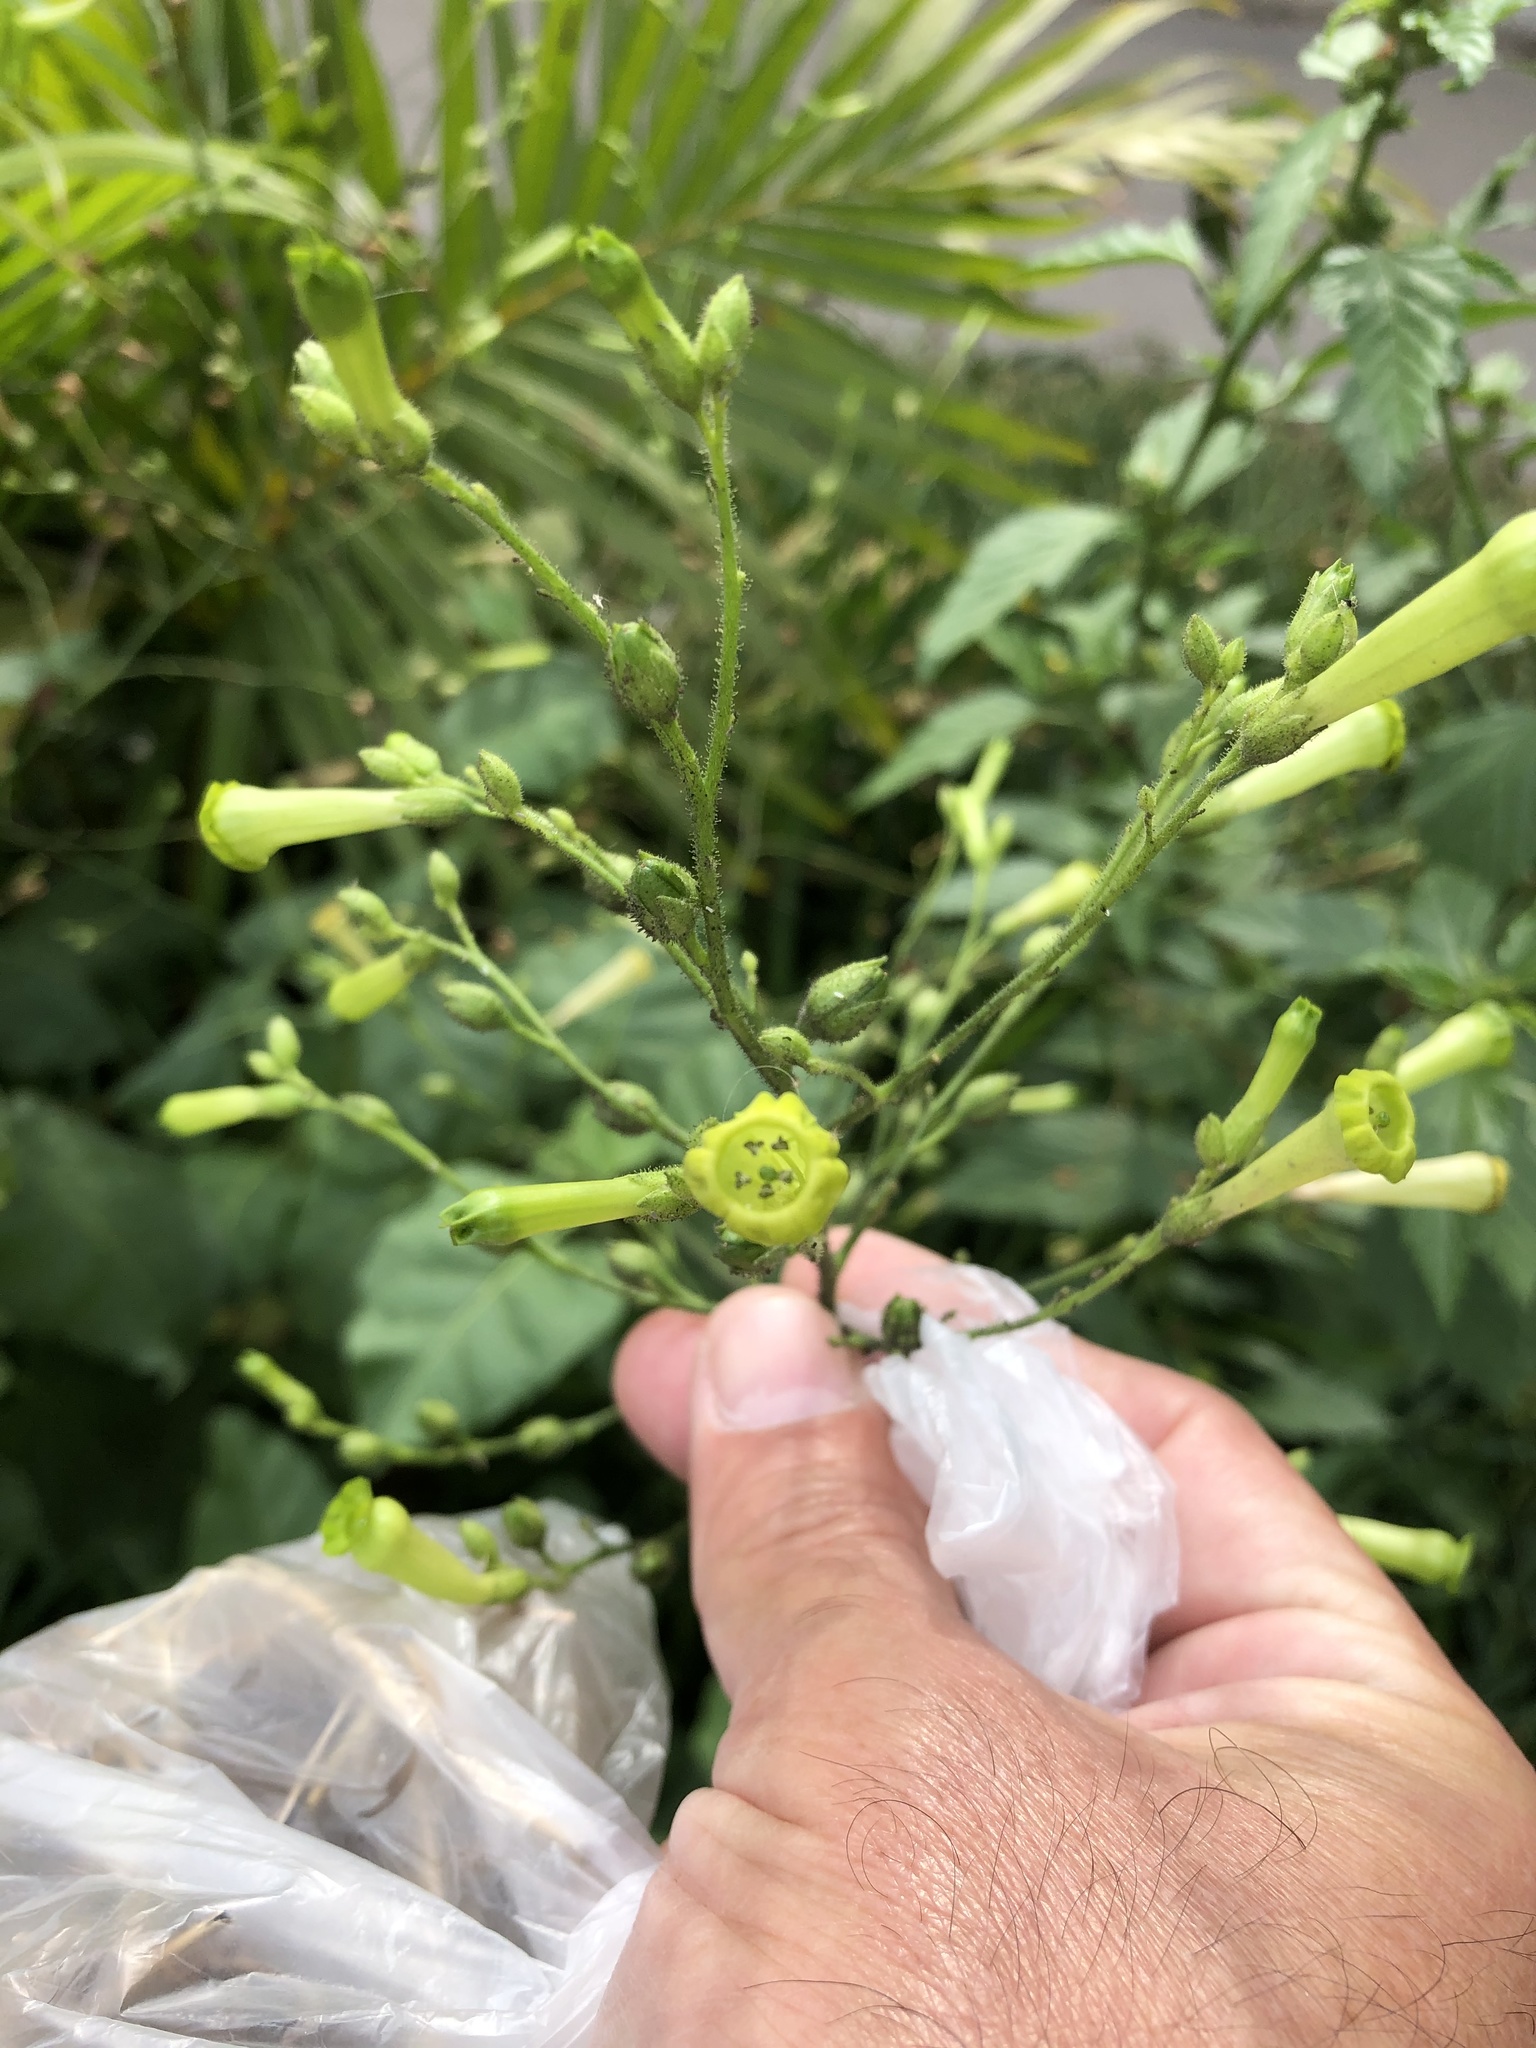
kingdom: Plantae
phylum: Tracheophyta
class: Magnoliopsida
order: Solanales
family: Solanaceae
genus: Nicotiana
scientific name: Nicotiana paniculata
